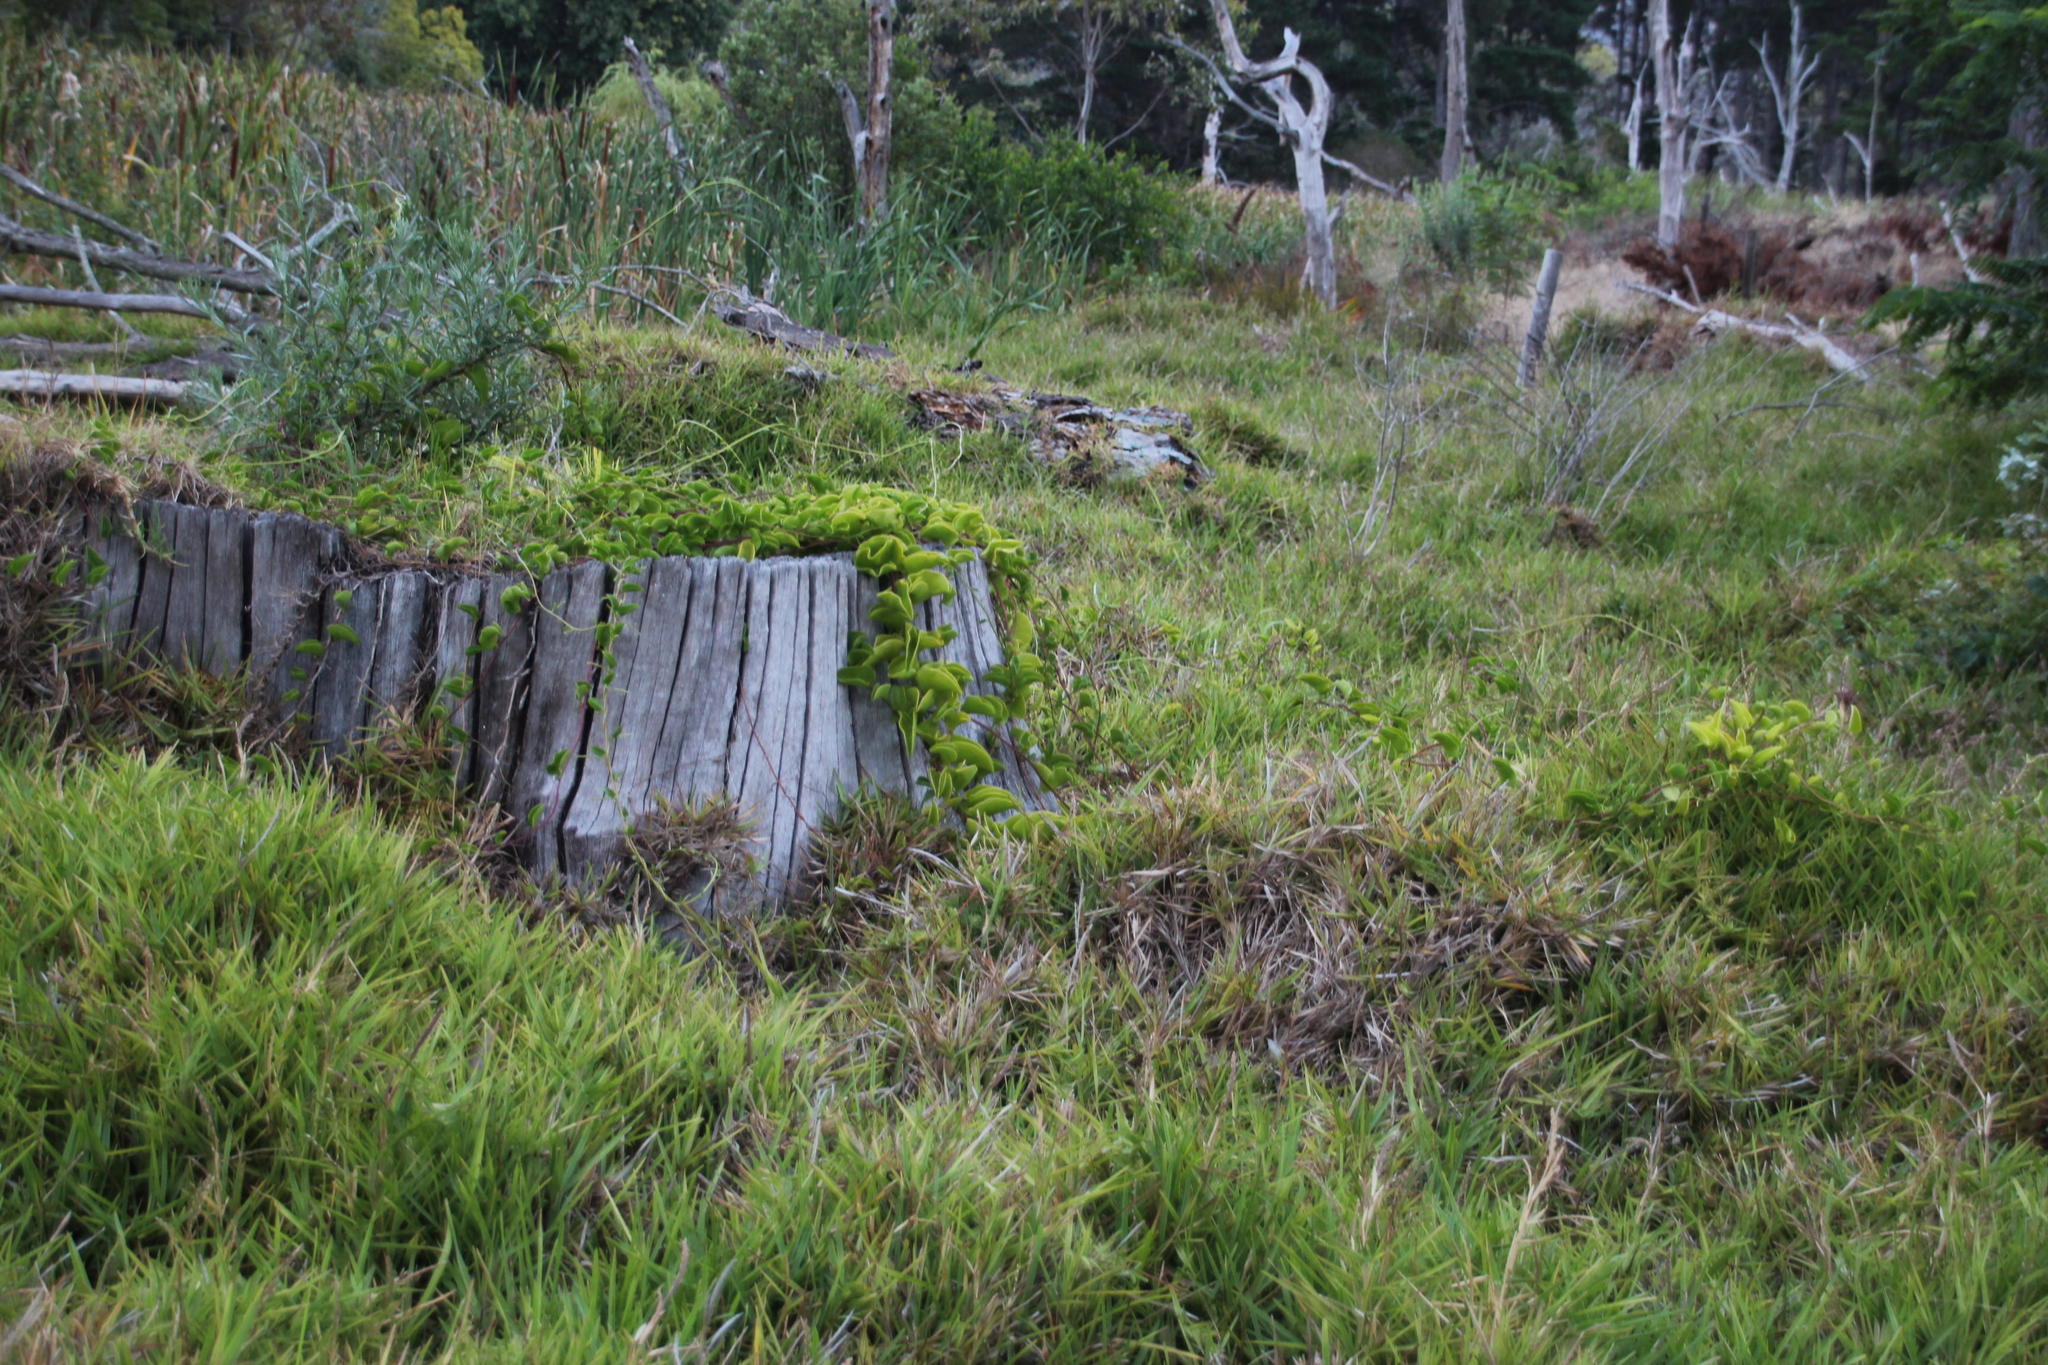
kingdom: Plantae
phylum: Tracheophyta
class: Magnoliopsida
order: Caryophyllales
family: Basellaceae
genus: Anredera
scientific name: Anredera cordifolia
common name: Heartleaf madeiravine
